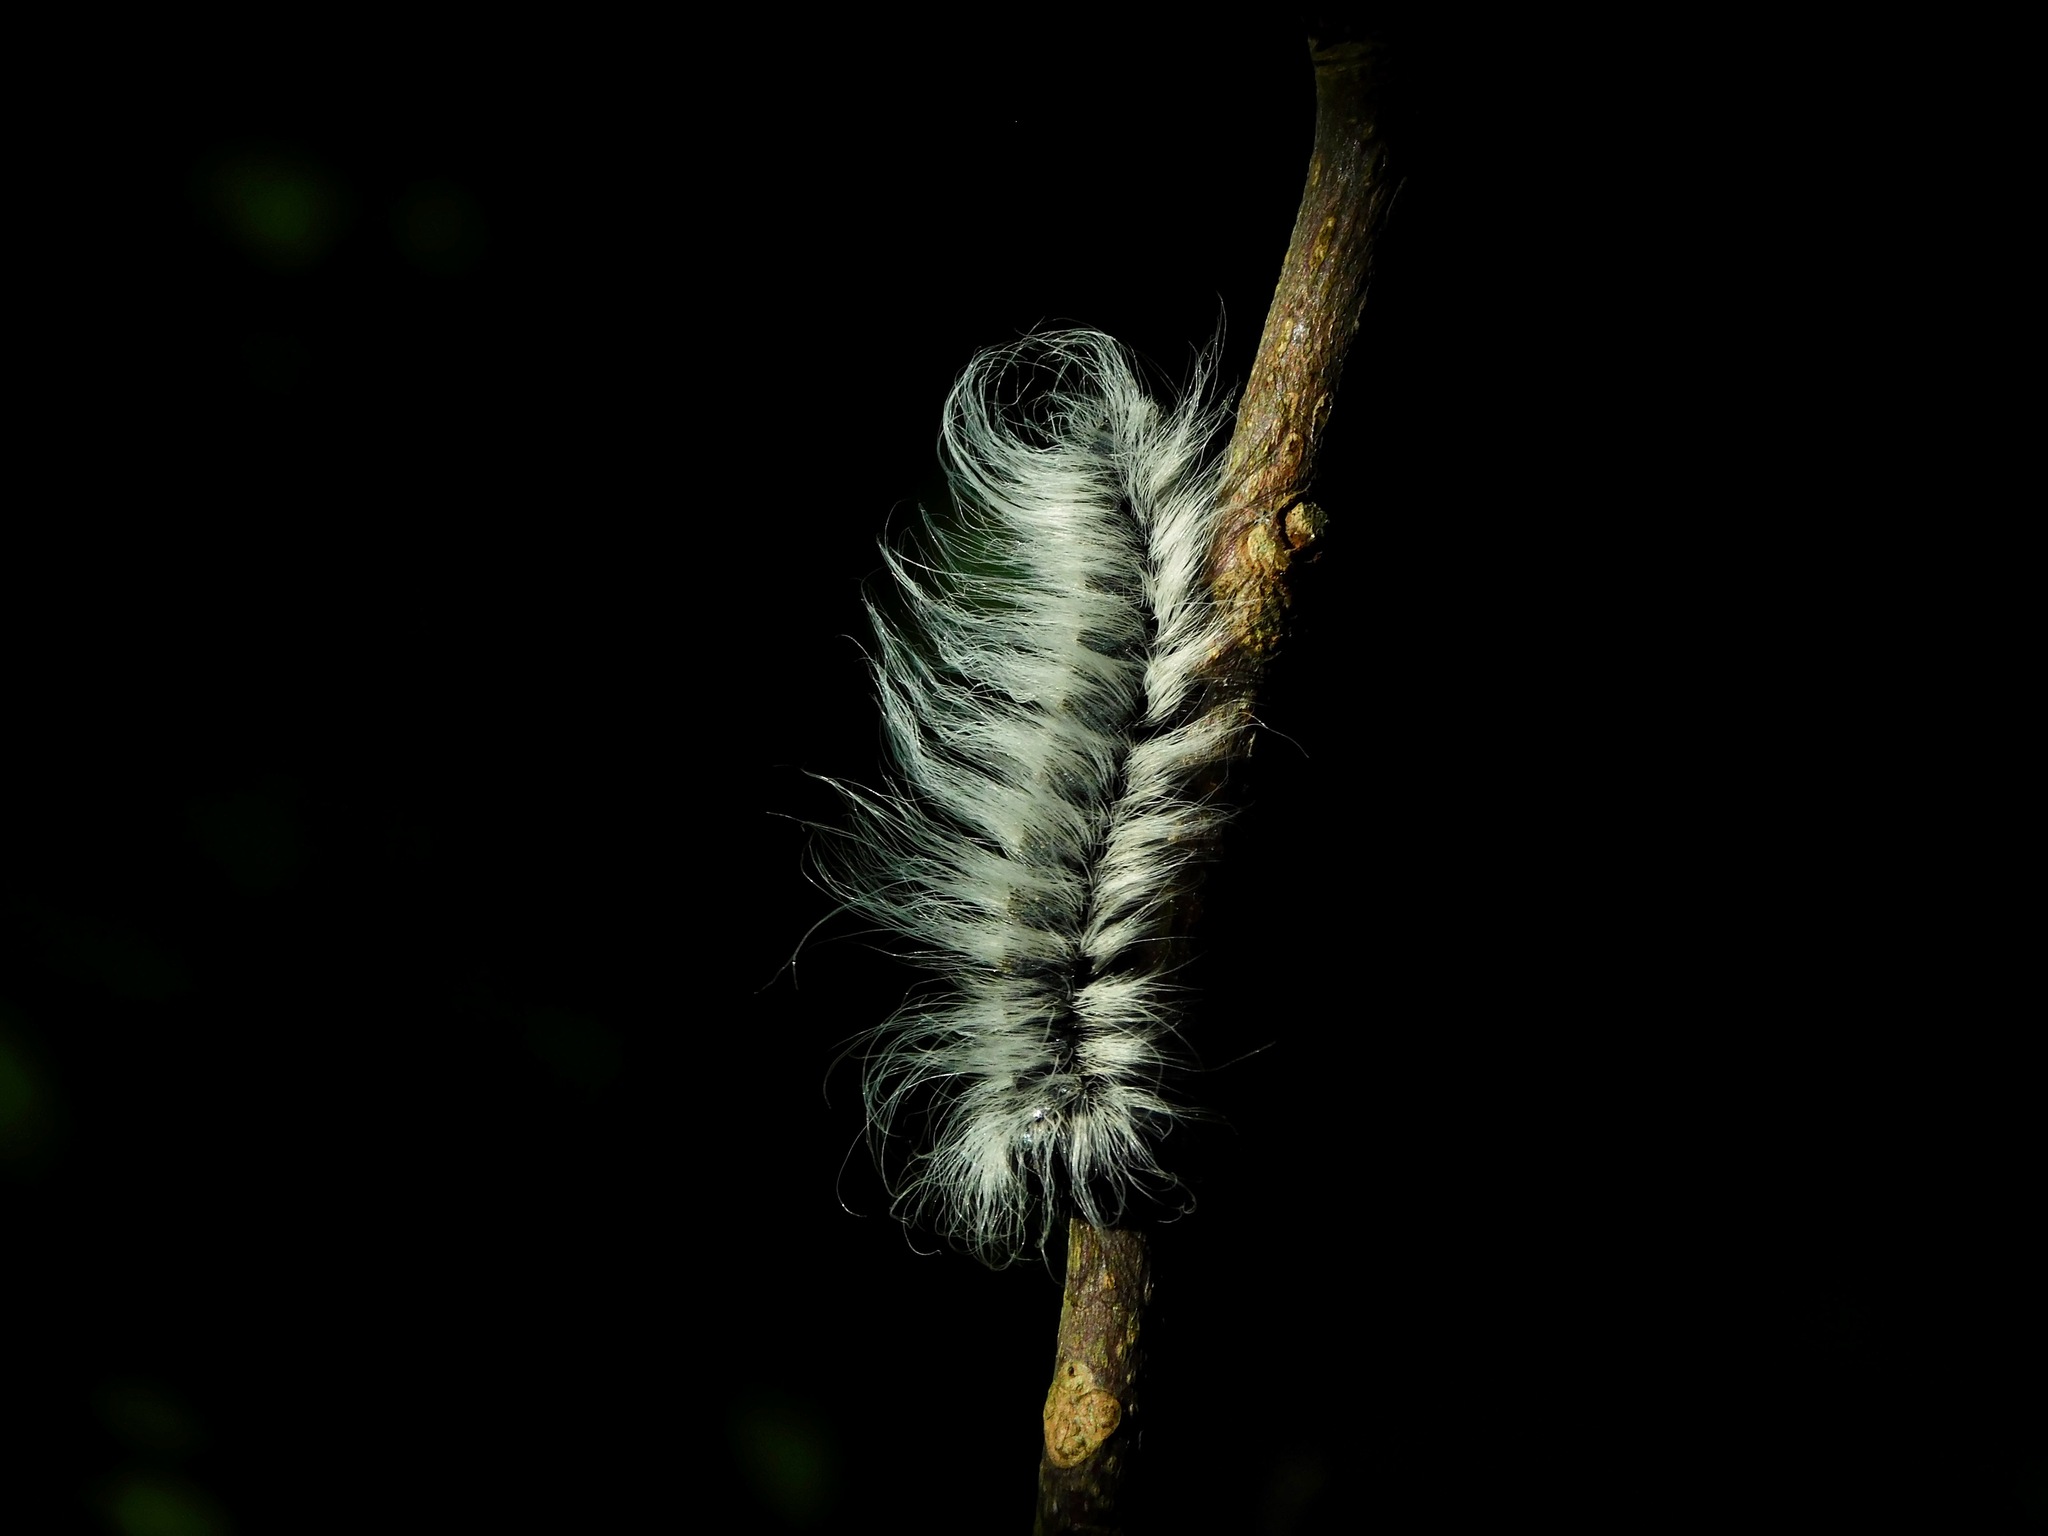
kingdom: Animalia
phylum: Arthropoda
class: Insecta
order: Lepidoptera
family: Erebidae
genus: Spilosoma
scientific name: Spilosoma virginica
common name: Virginia tiger moth
